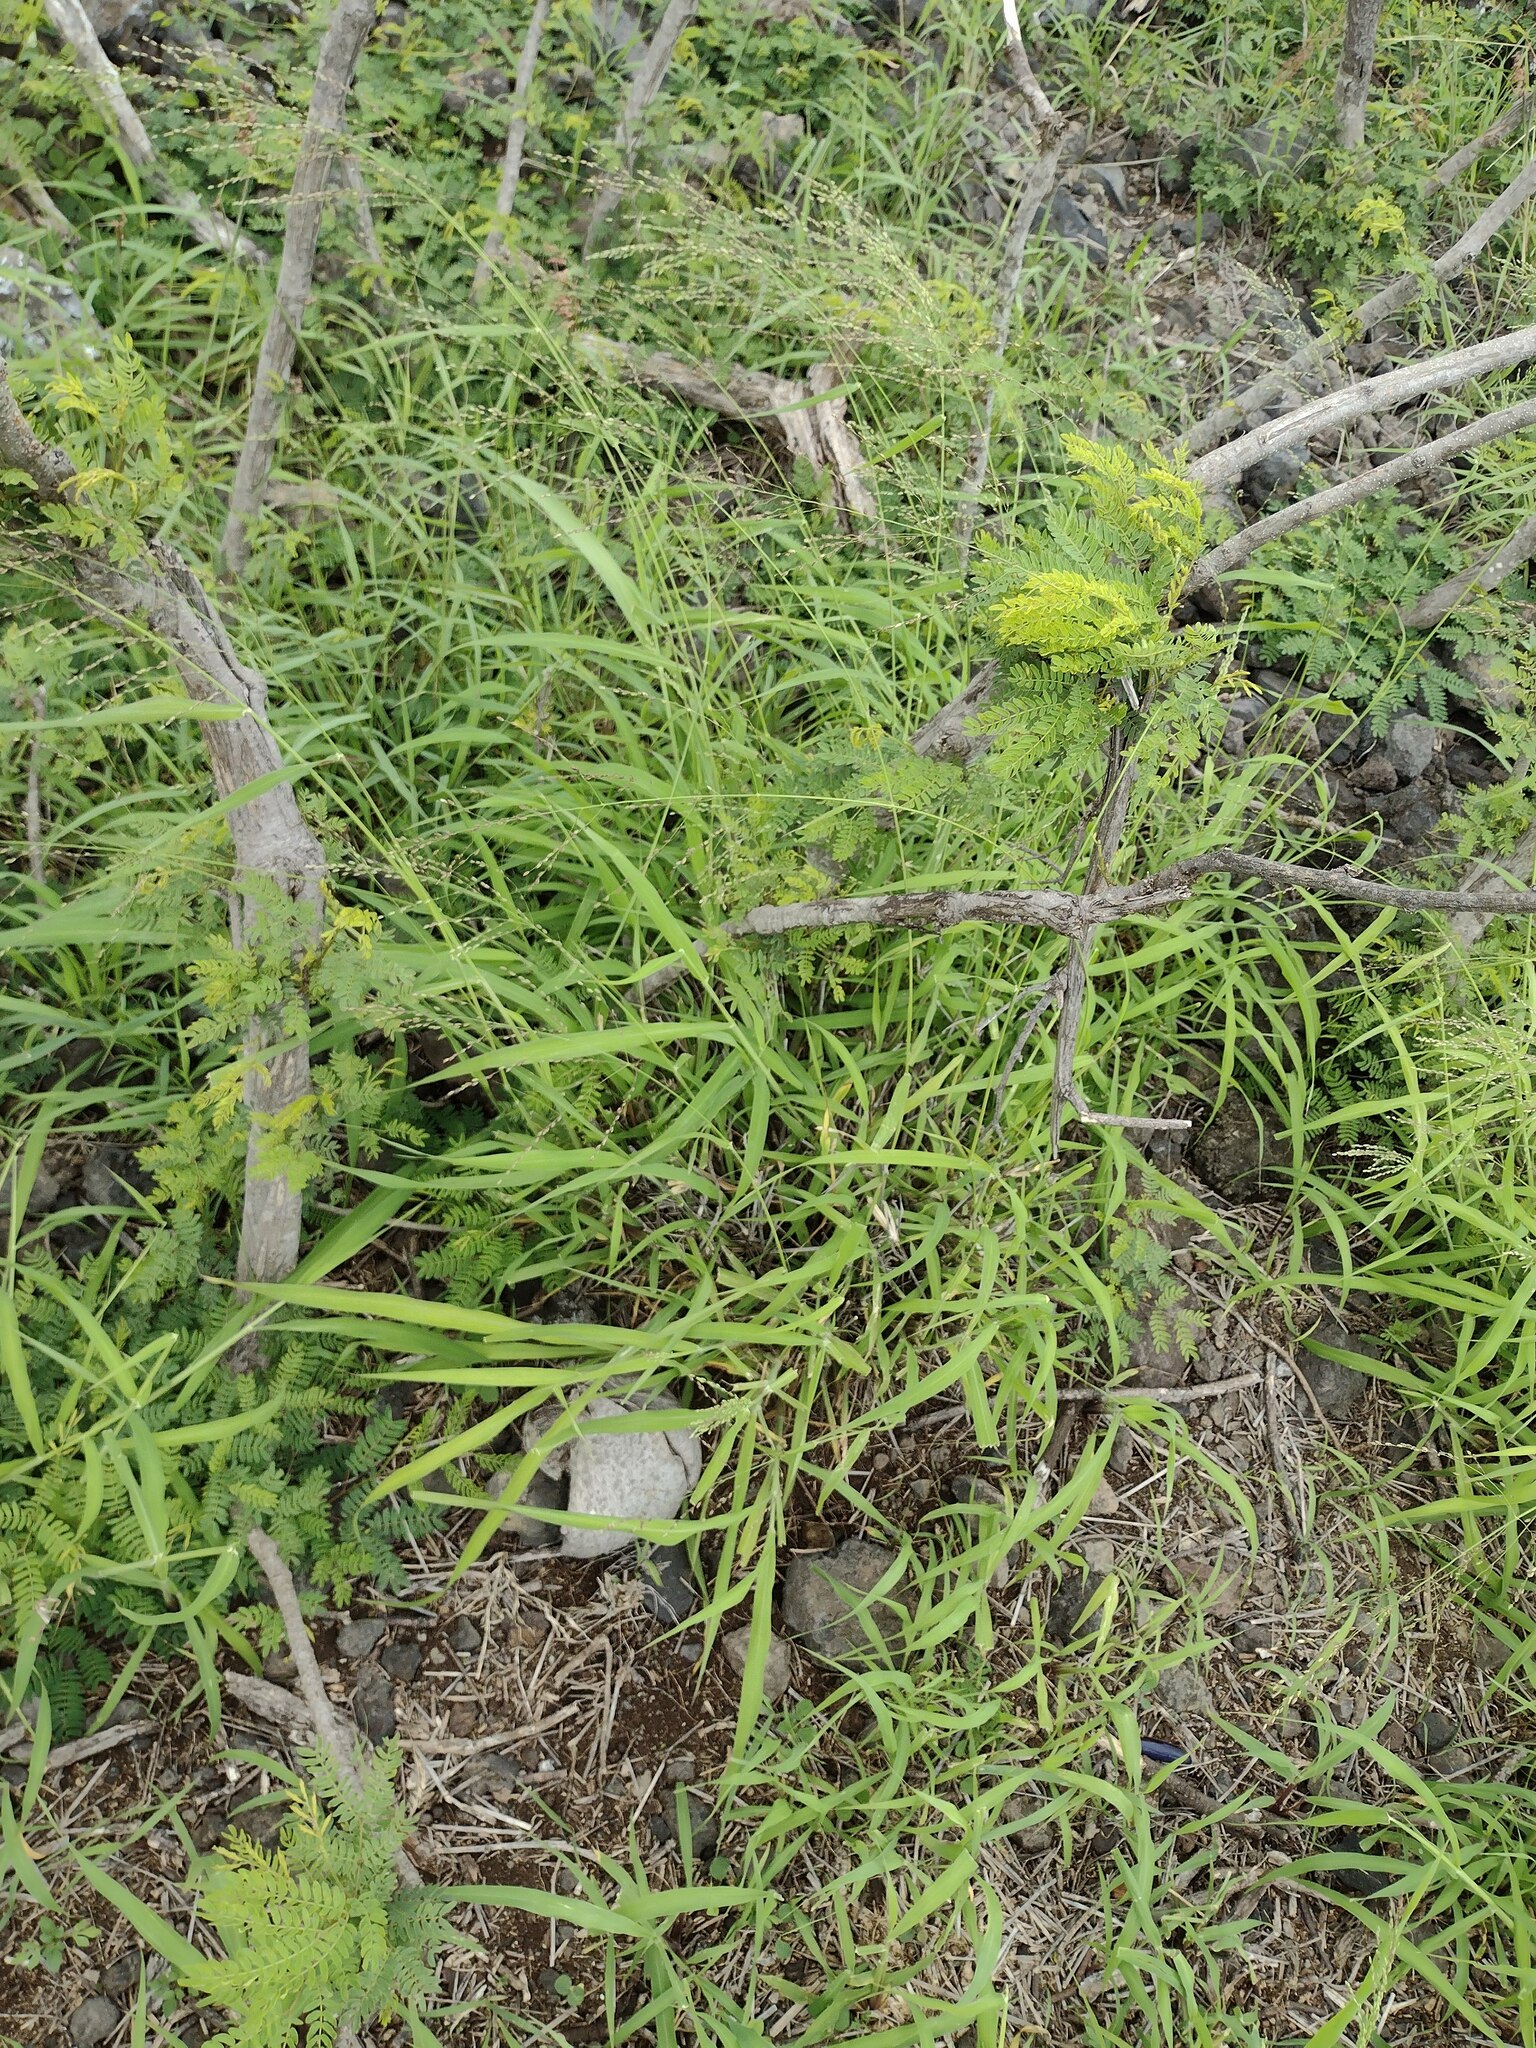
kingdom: Plantae
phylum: Tracheophyta
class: Liliopsida
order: Poales
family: Poaceae
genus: Megathyrsus
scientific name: Megathyrsus maximus
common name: Guineagrass
